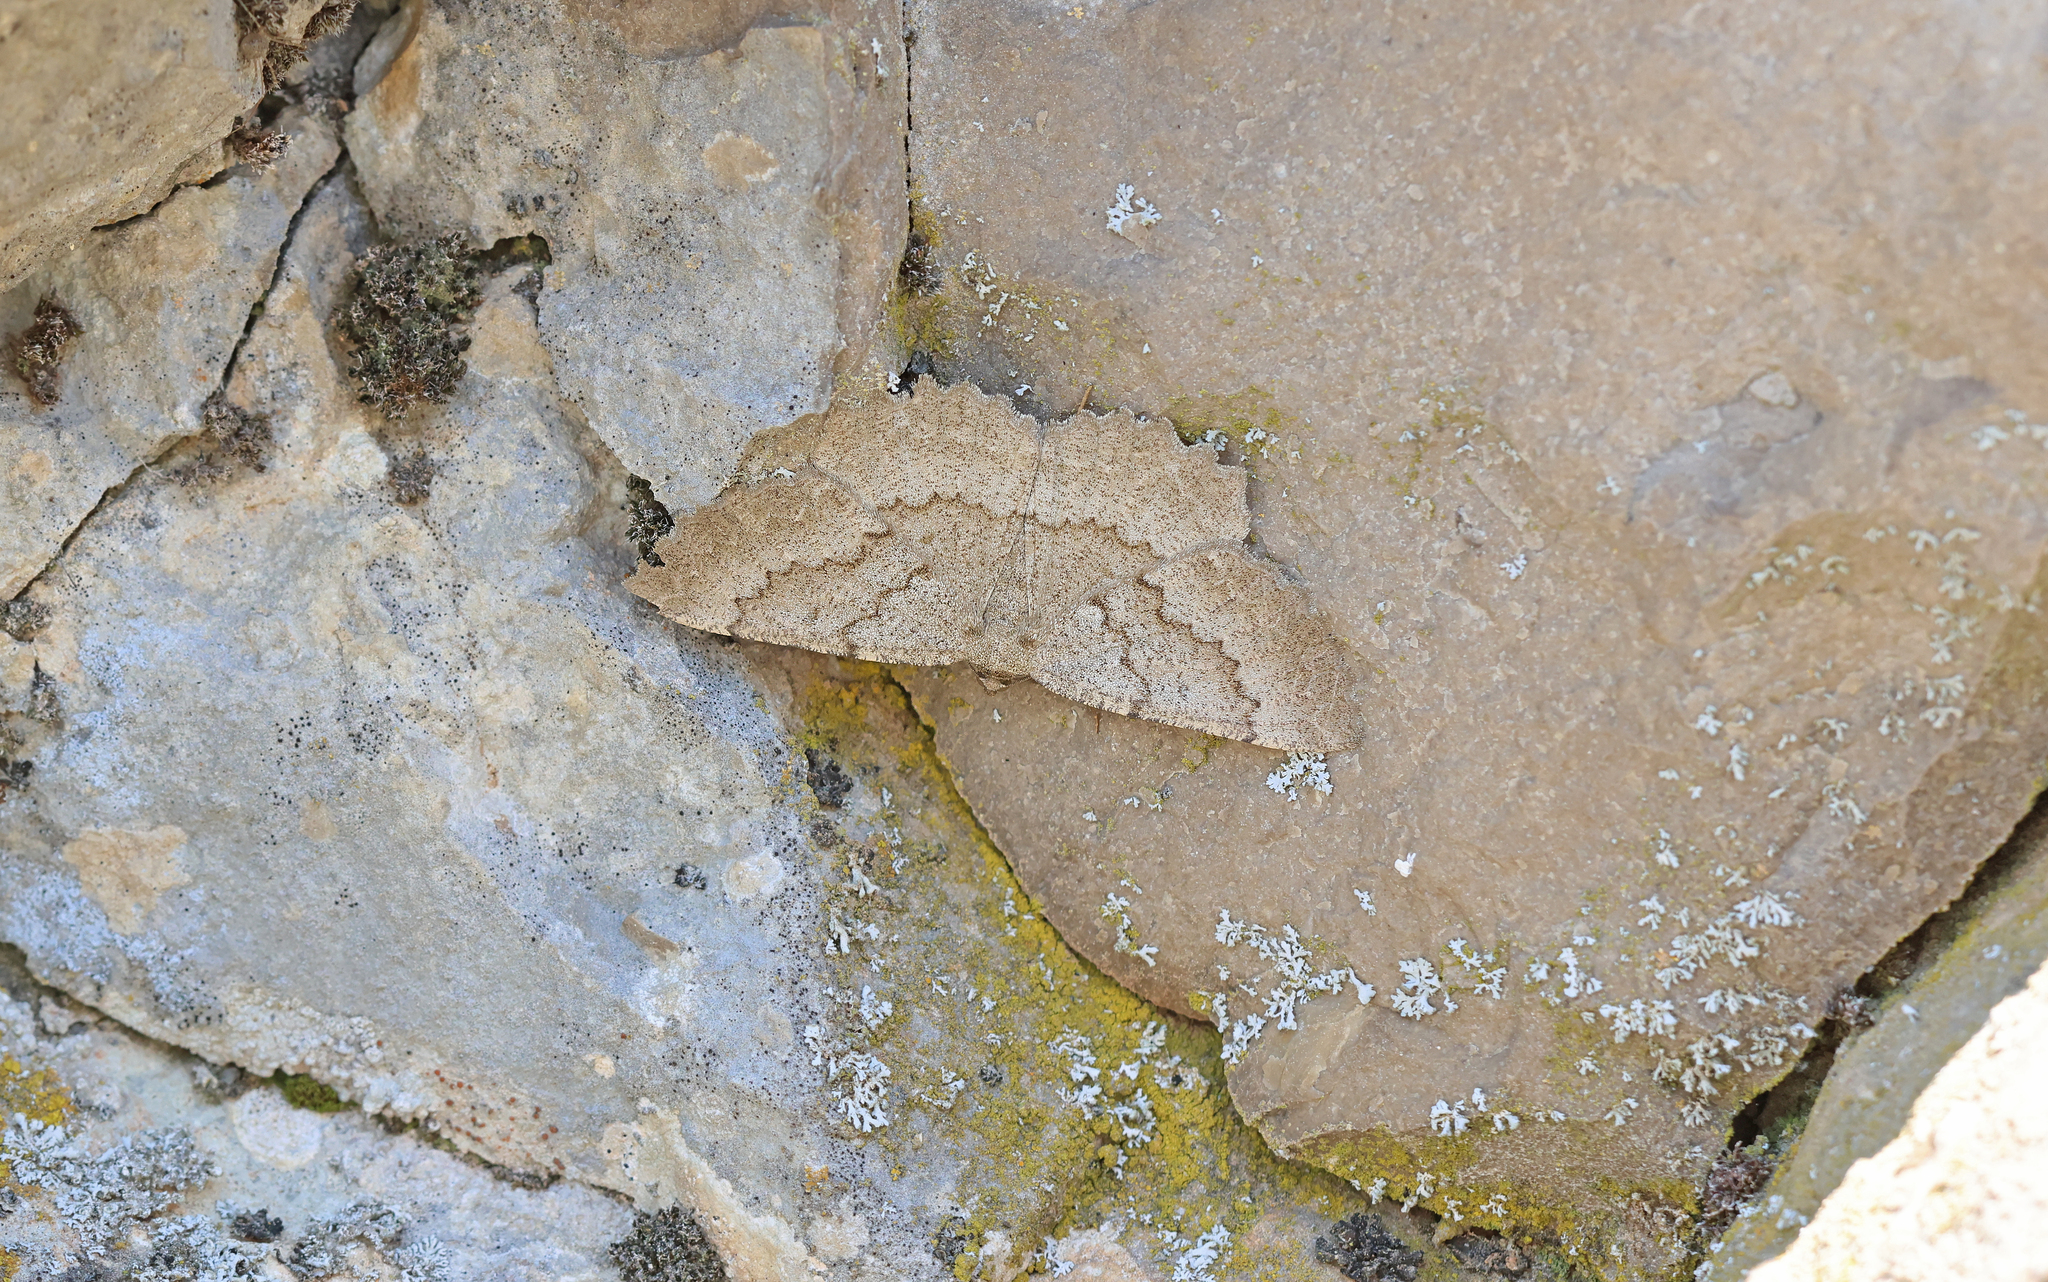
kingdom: Animalia
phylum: Arthropoda
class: Insecta
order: Lepidoptera
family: Geometridae
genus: Gnophos
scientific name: Gnophos furvata
